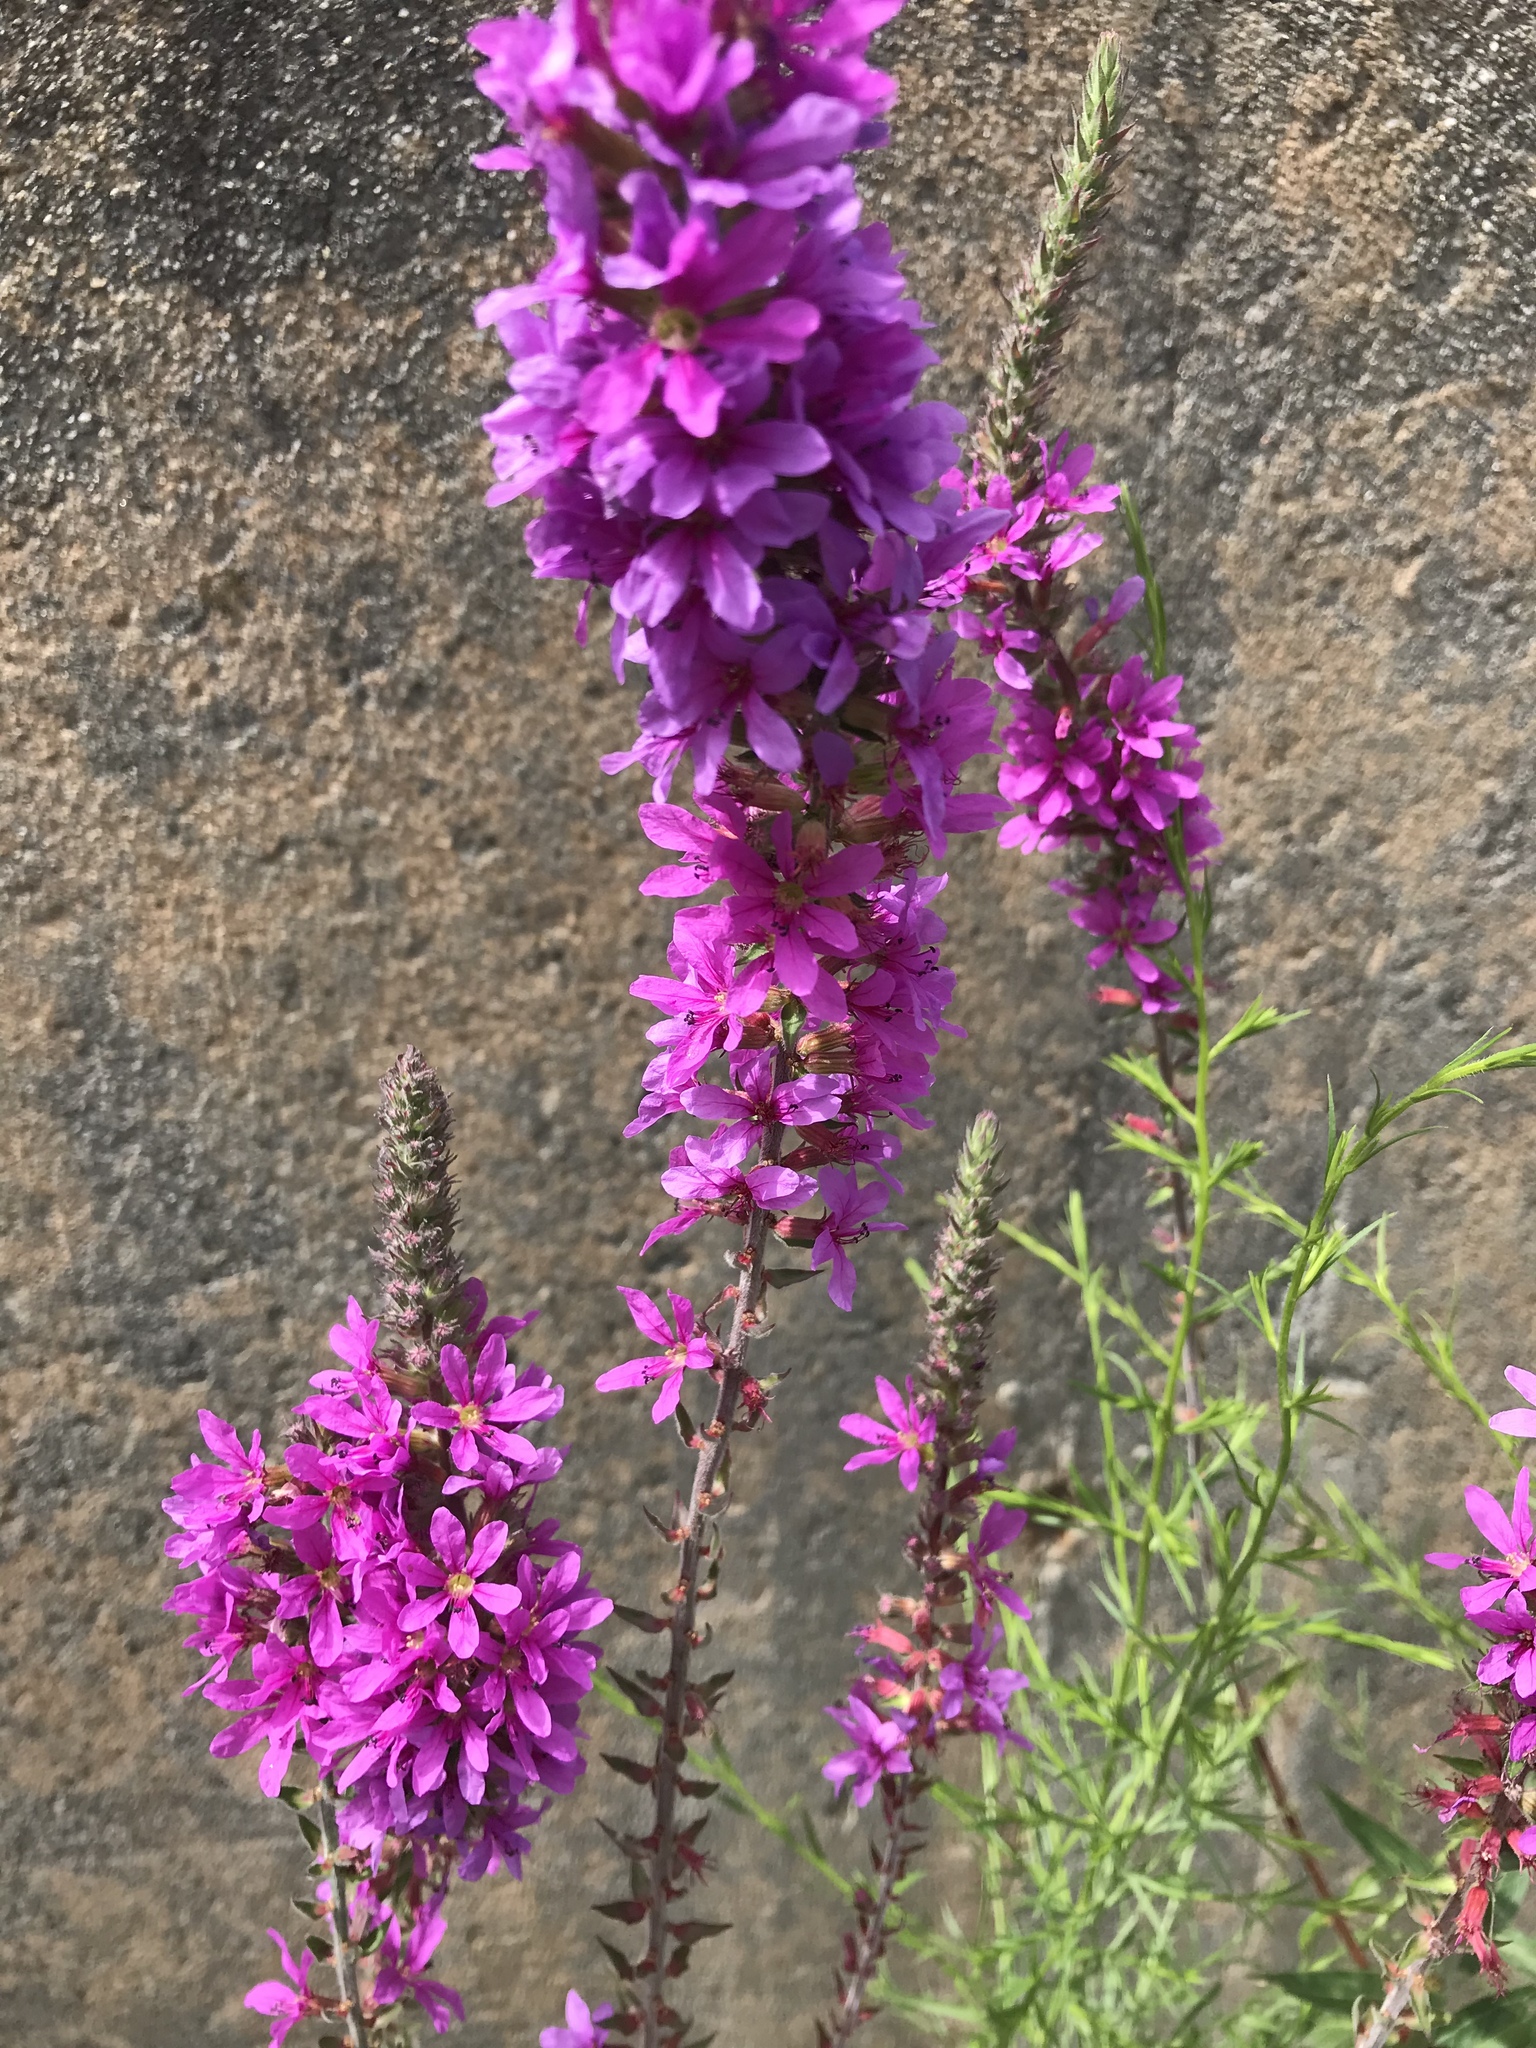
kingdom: Plantae
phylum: Tracheophyta
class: Magnoliopsida
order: Myrtales
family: Lythraceae
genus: Lythrum
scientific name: Lythrum salicaria
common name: Purple loosestrife
